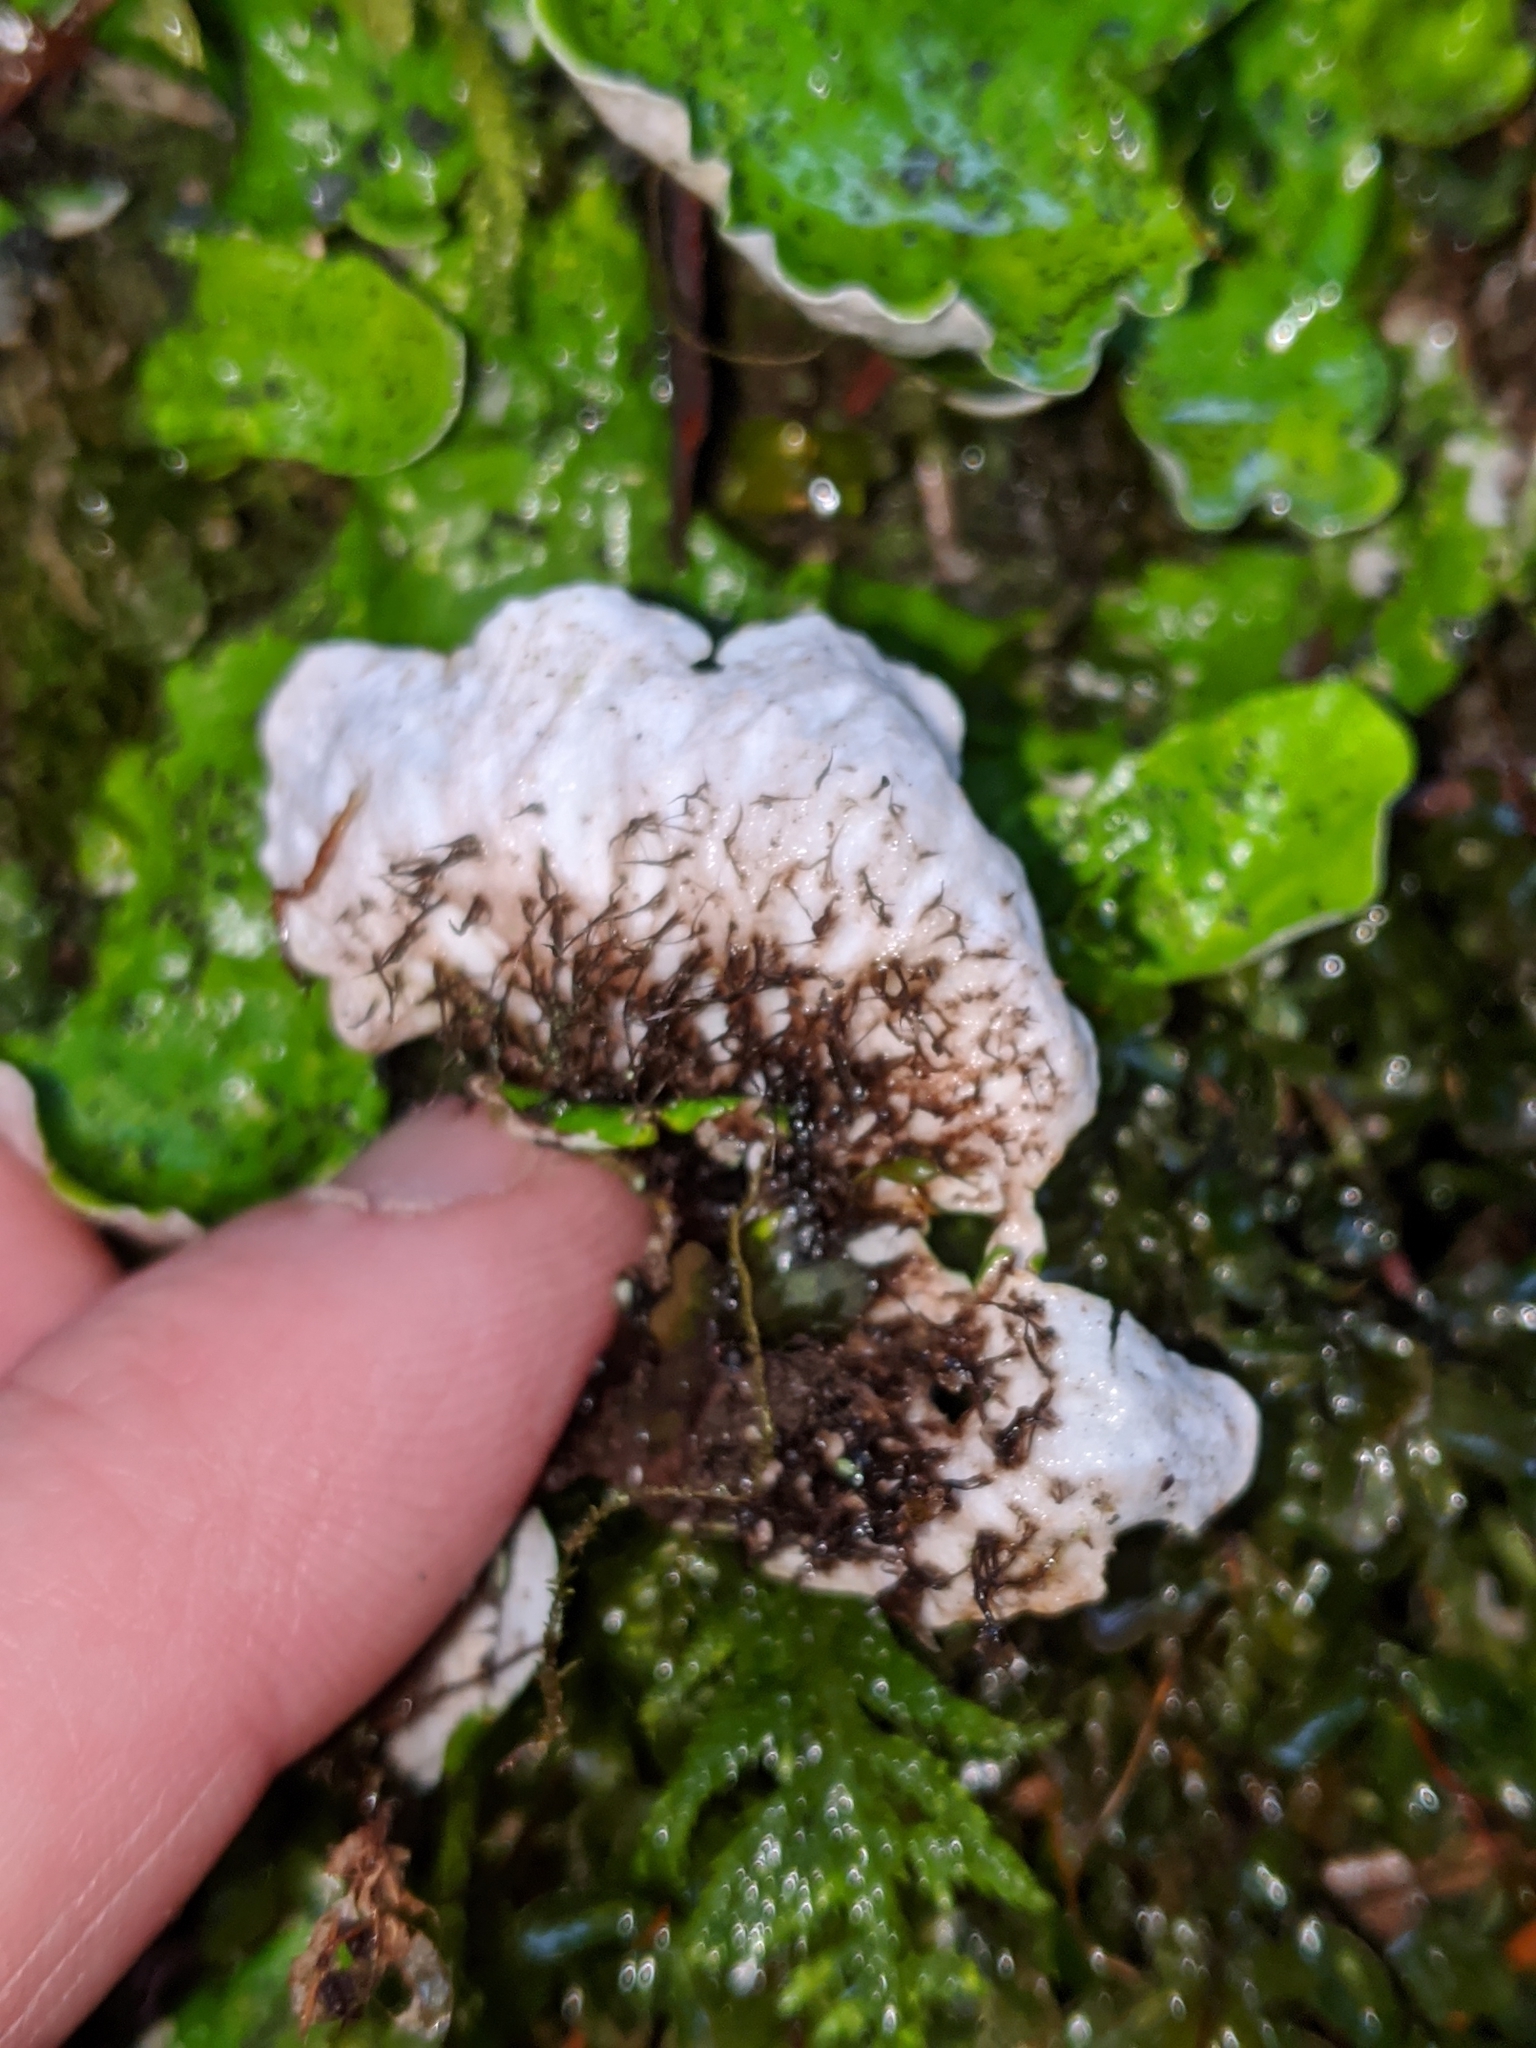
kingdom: Fungi
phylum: Ascomycota
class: Lecanoromycetes
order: Peltigerales
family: Peltigeraceae
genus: Peltigera
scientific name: Peltigera aphthosa
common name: Common freckle pelt lichen
